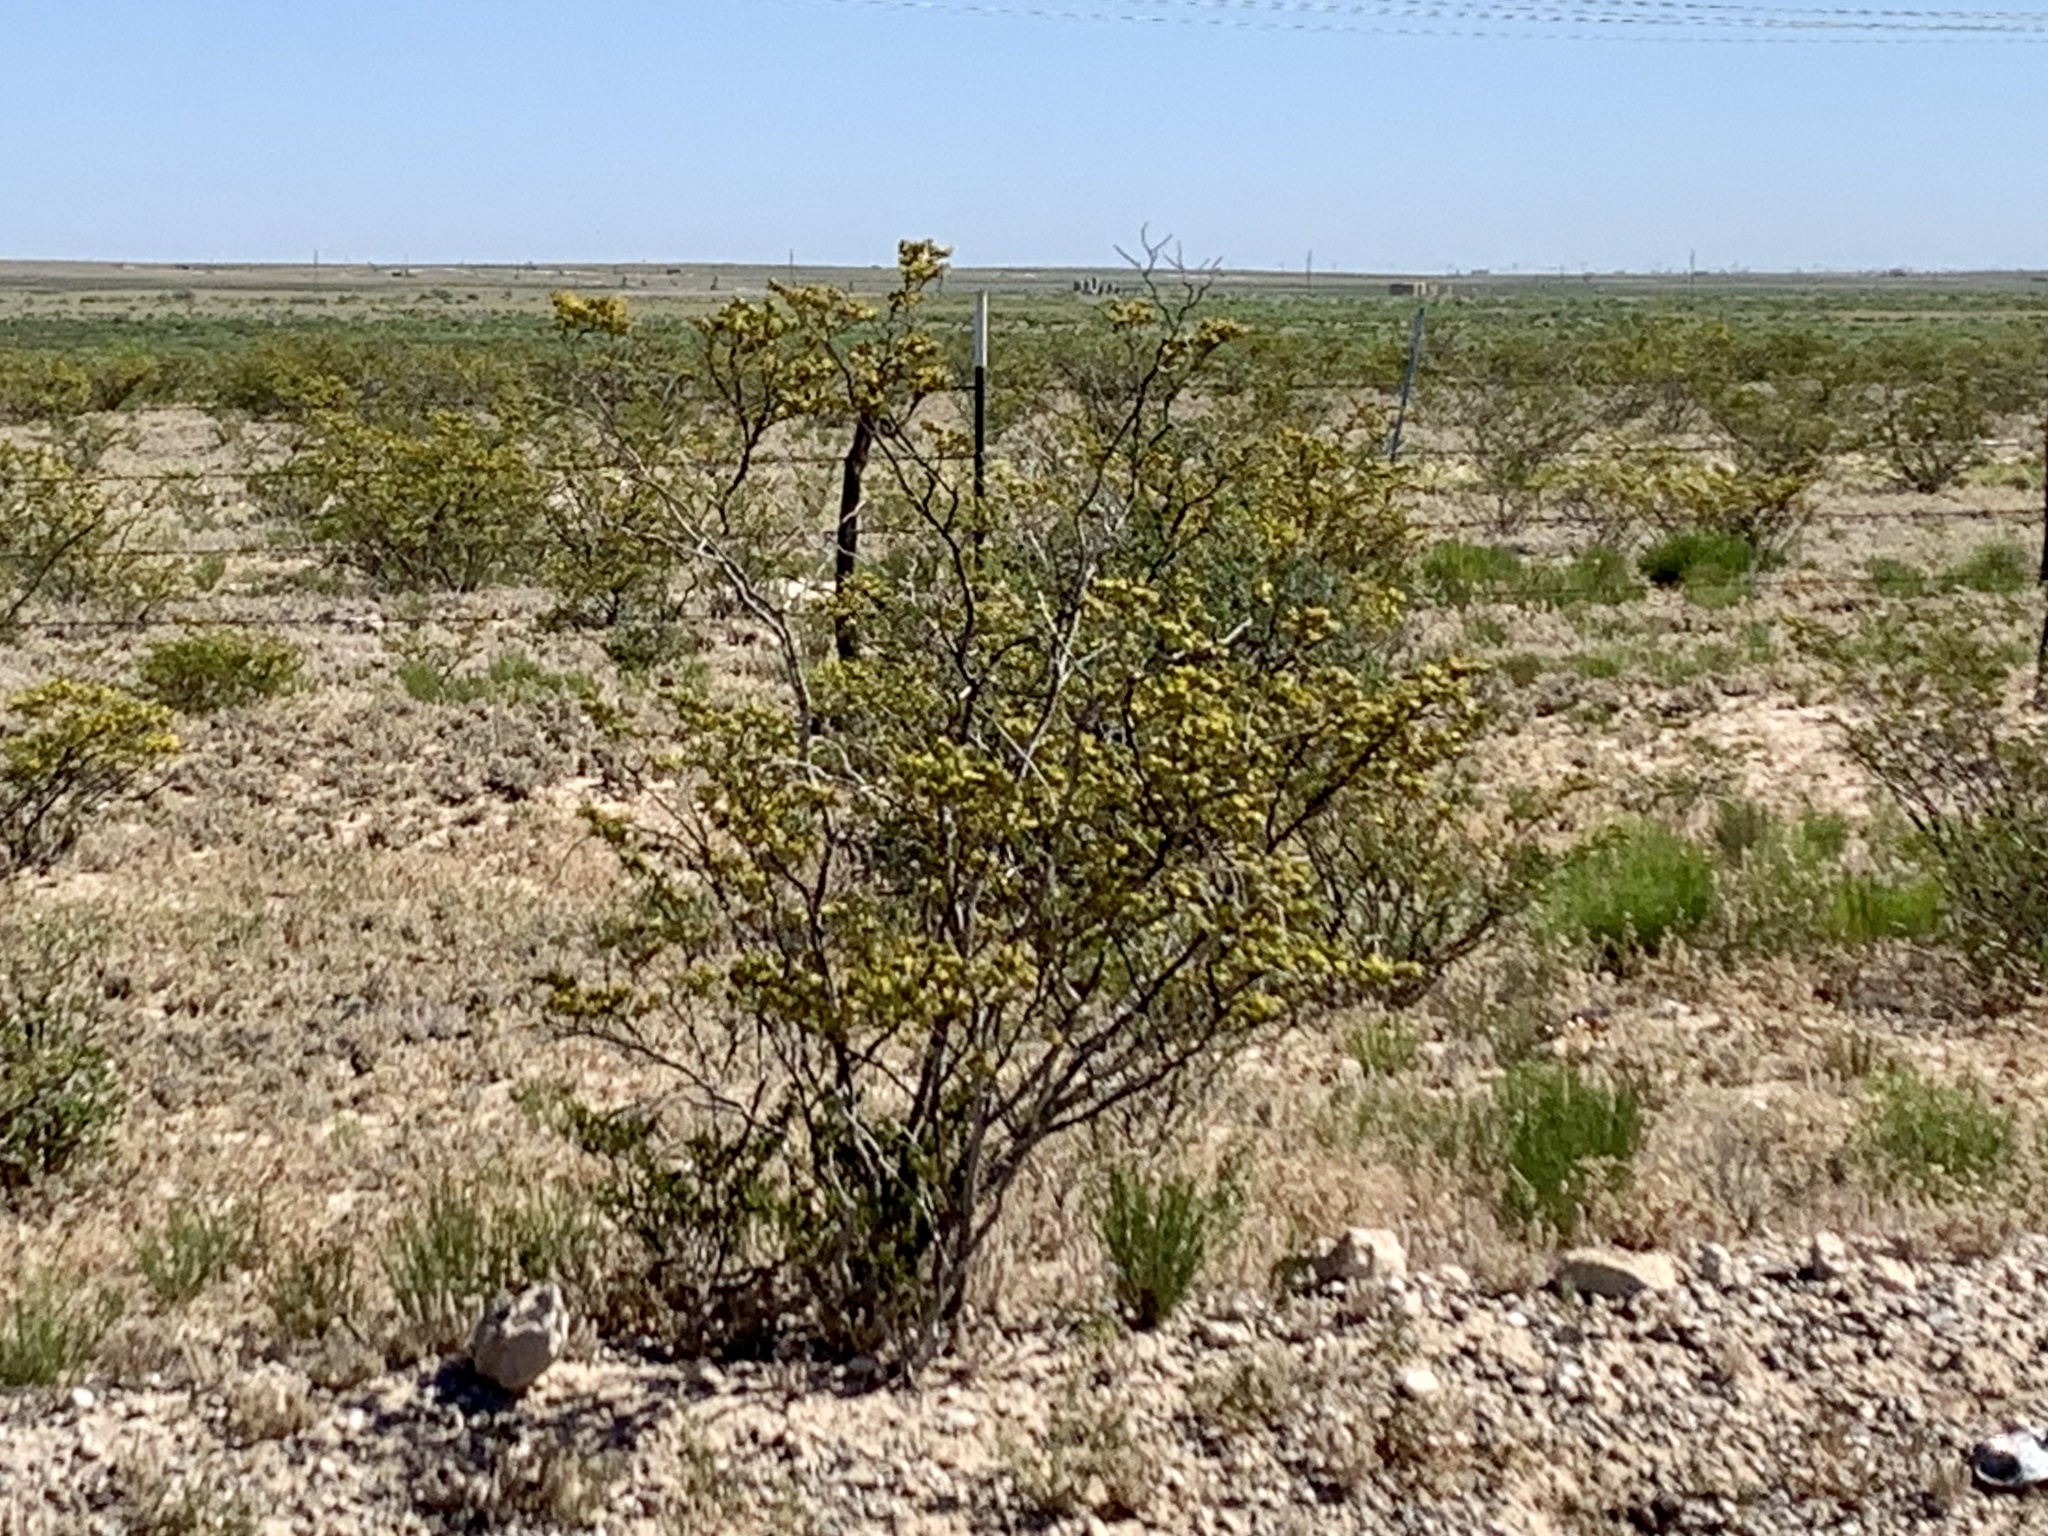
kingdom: Plantae
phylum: Tracheophyta
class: Magnoliopsida
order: Zygophyllales
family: Zygophyllaceae
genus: Larrea
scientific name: Larrea tridentata
